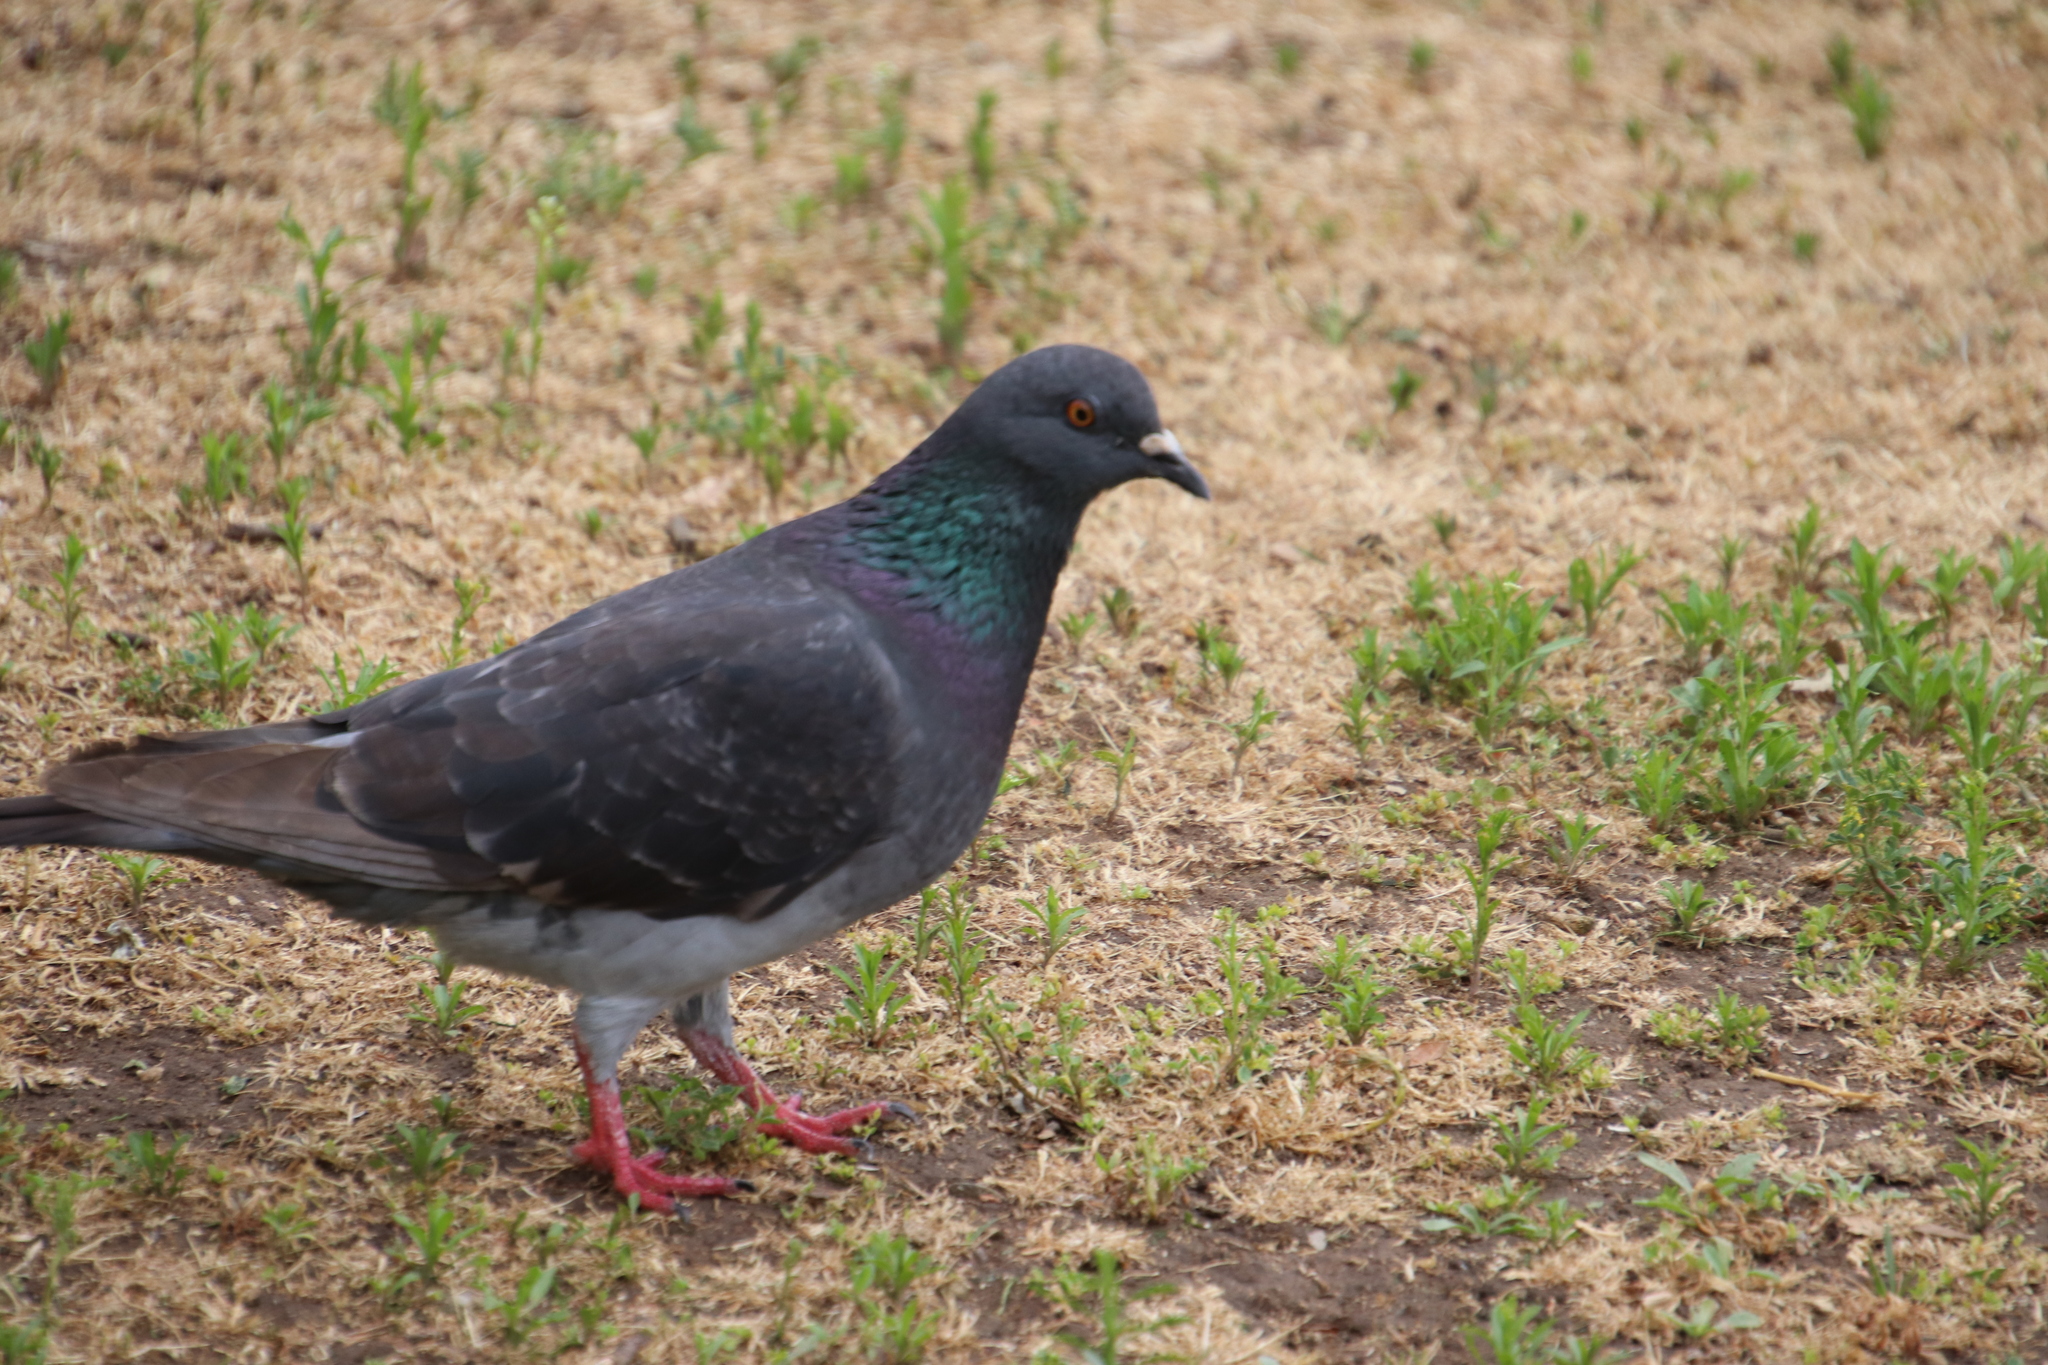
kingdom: Animalia
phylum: Chordata
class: Aves
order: Columbiformes
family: Columbidae
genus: Columba
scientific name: Columba livia
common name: Rock pigeon
